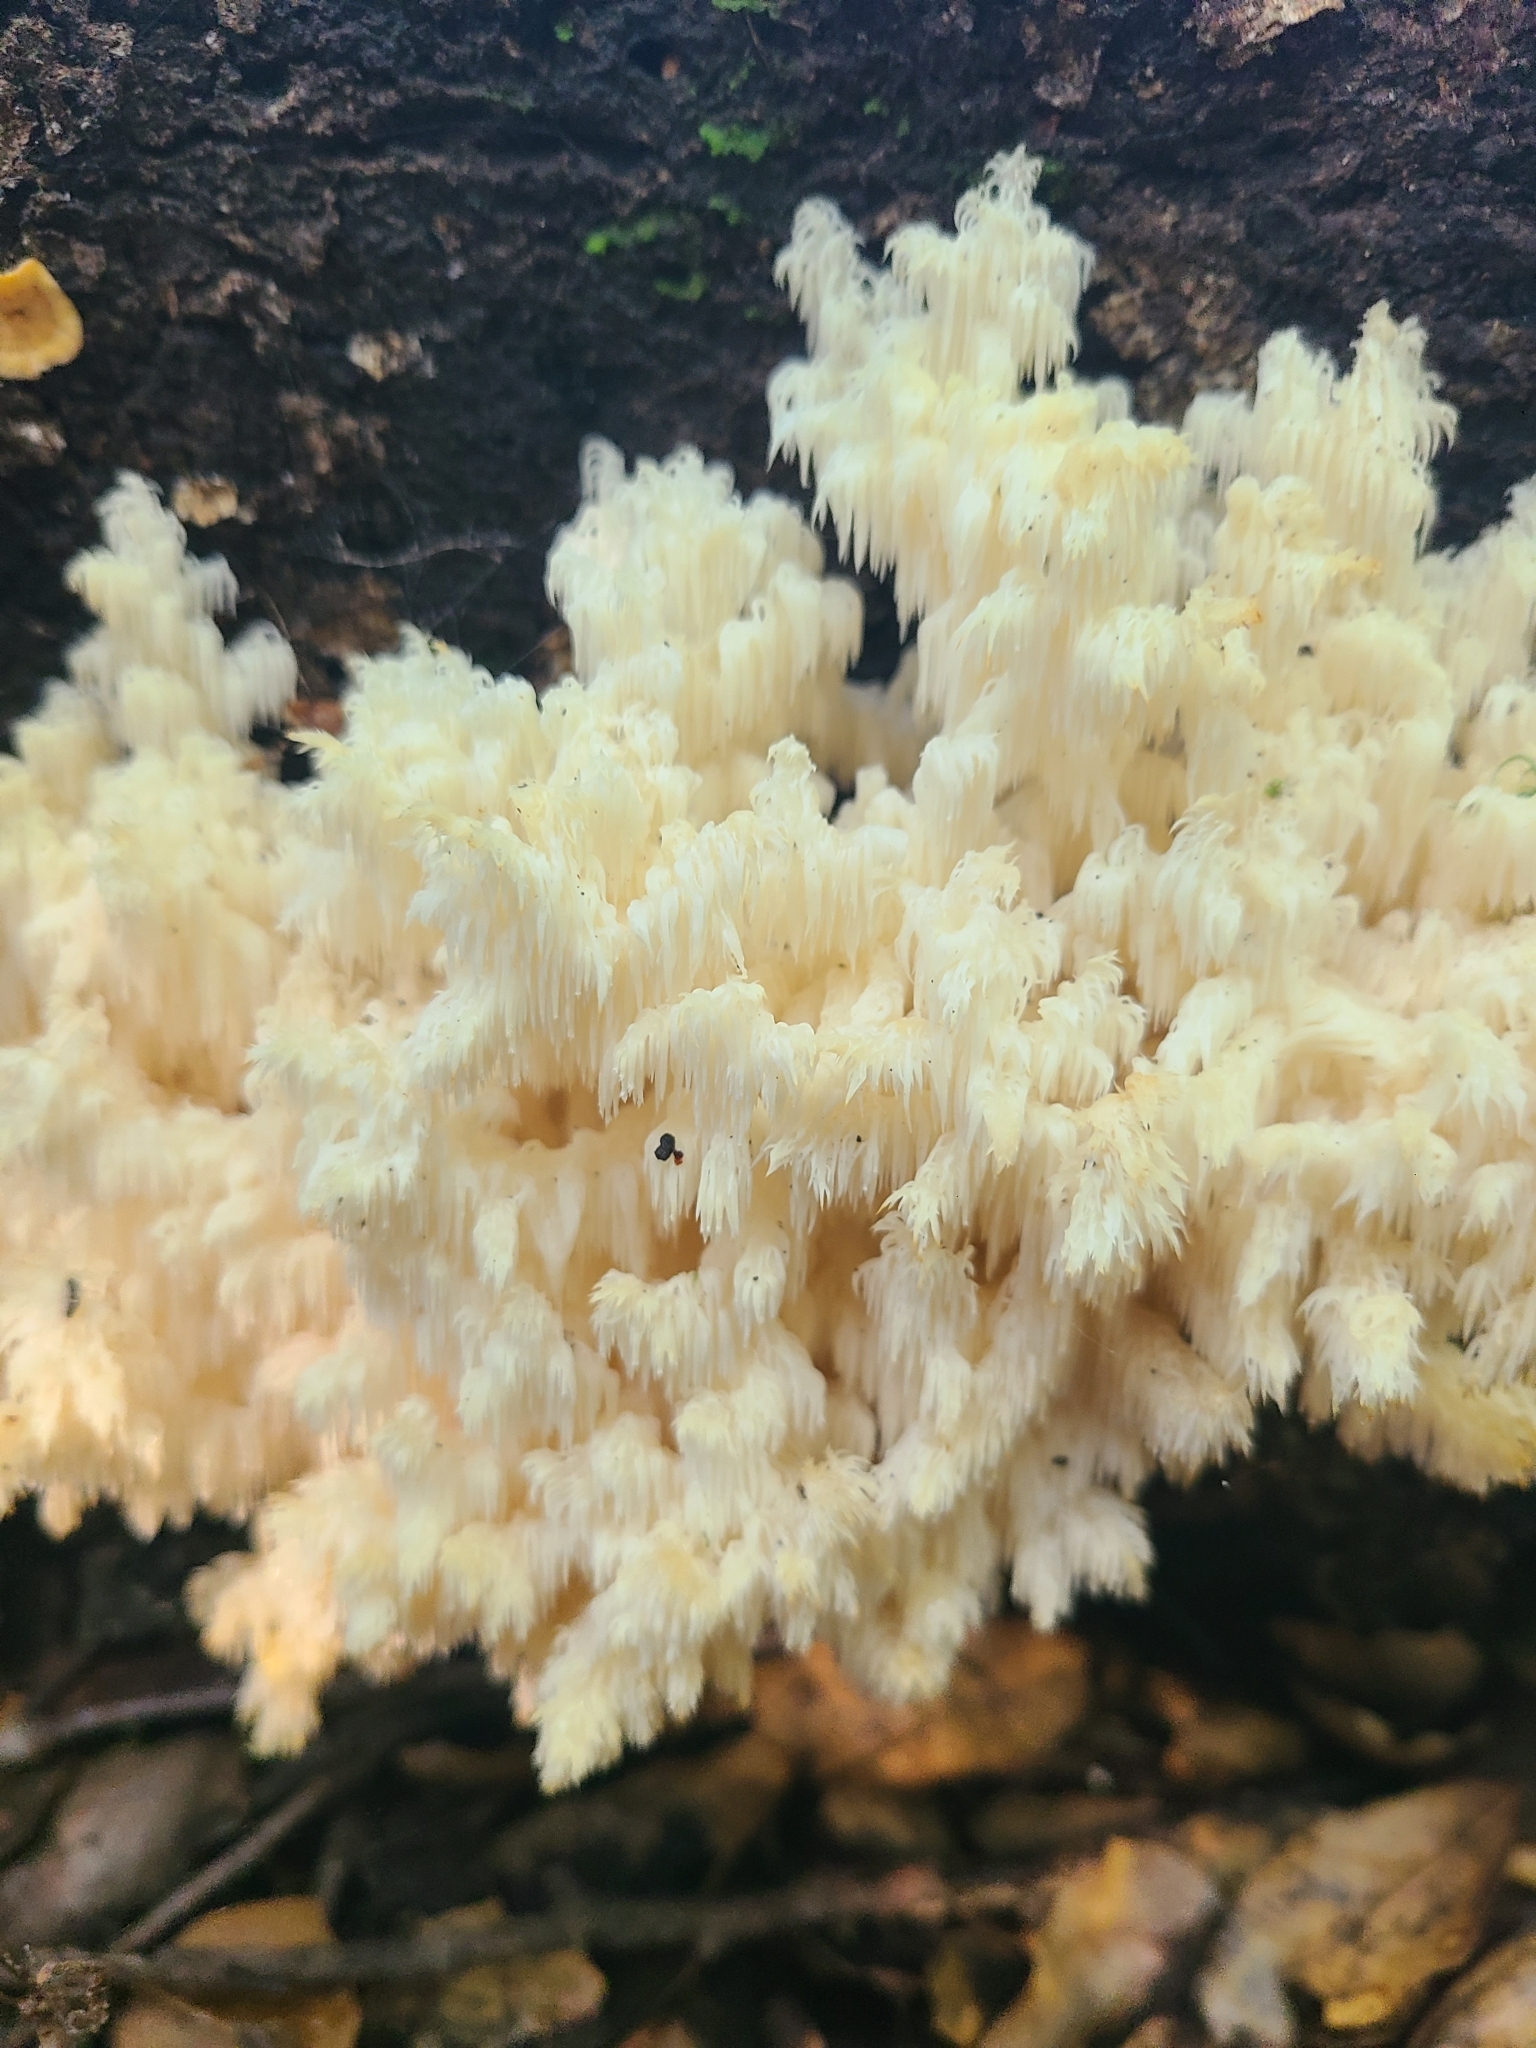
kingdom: Fungi
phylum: Basidiomycota
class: Agaricomycetes
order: Russulales
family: Hericiaceae
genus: Hericium
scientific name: Hericium coralloides
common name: Coral tooth
